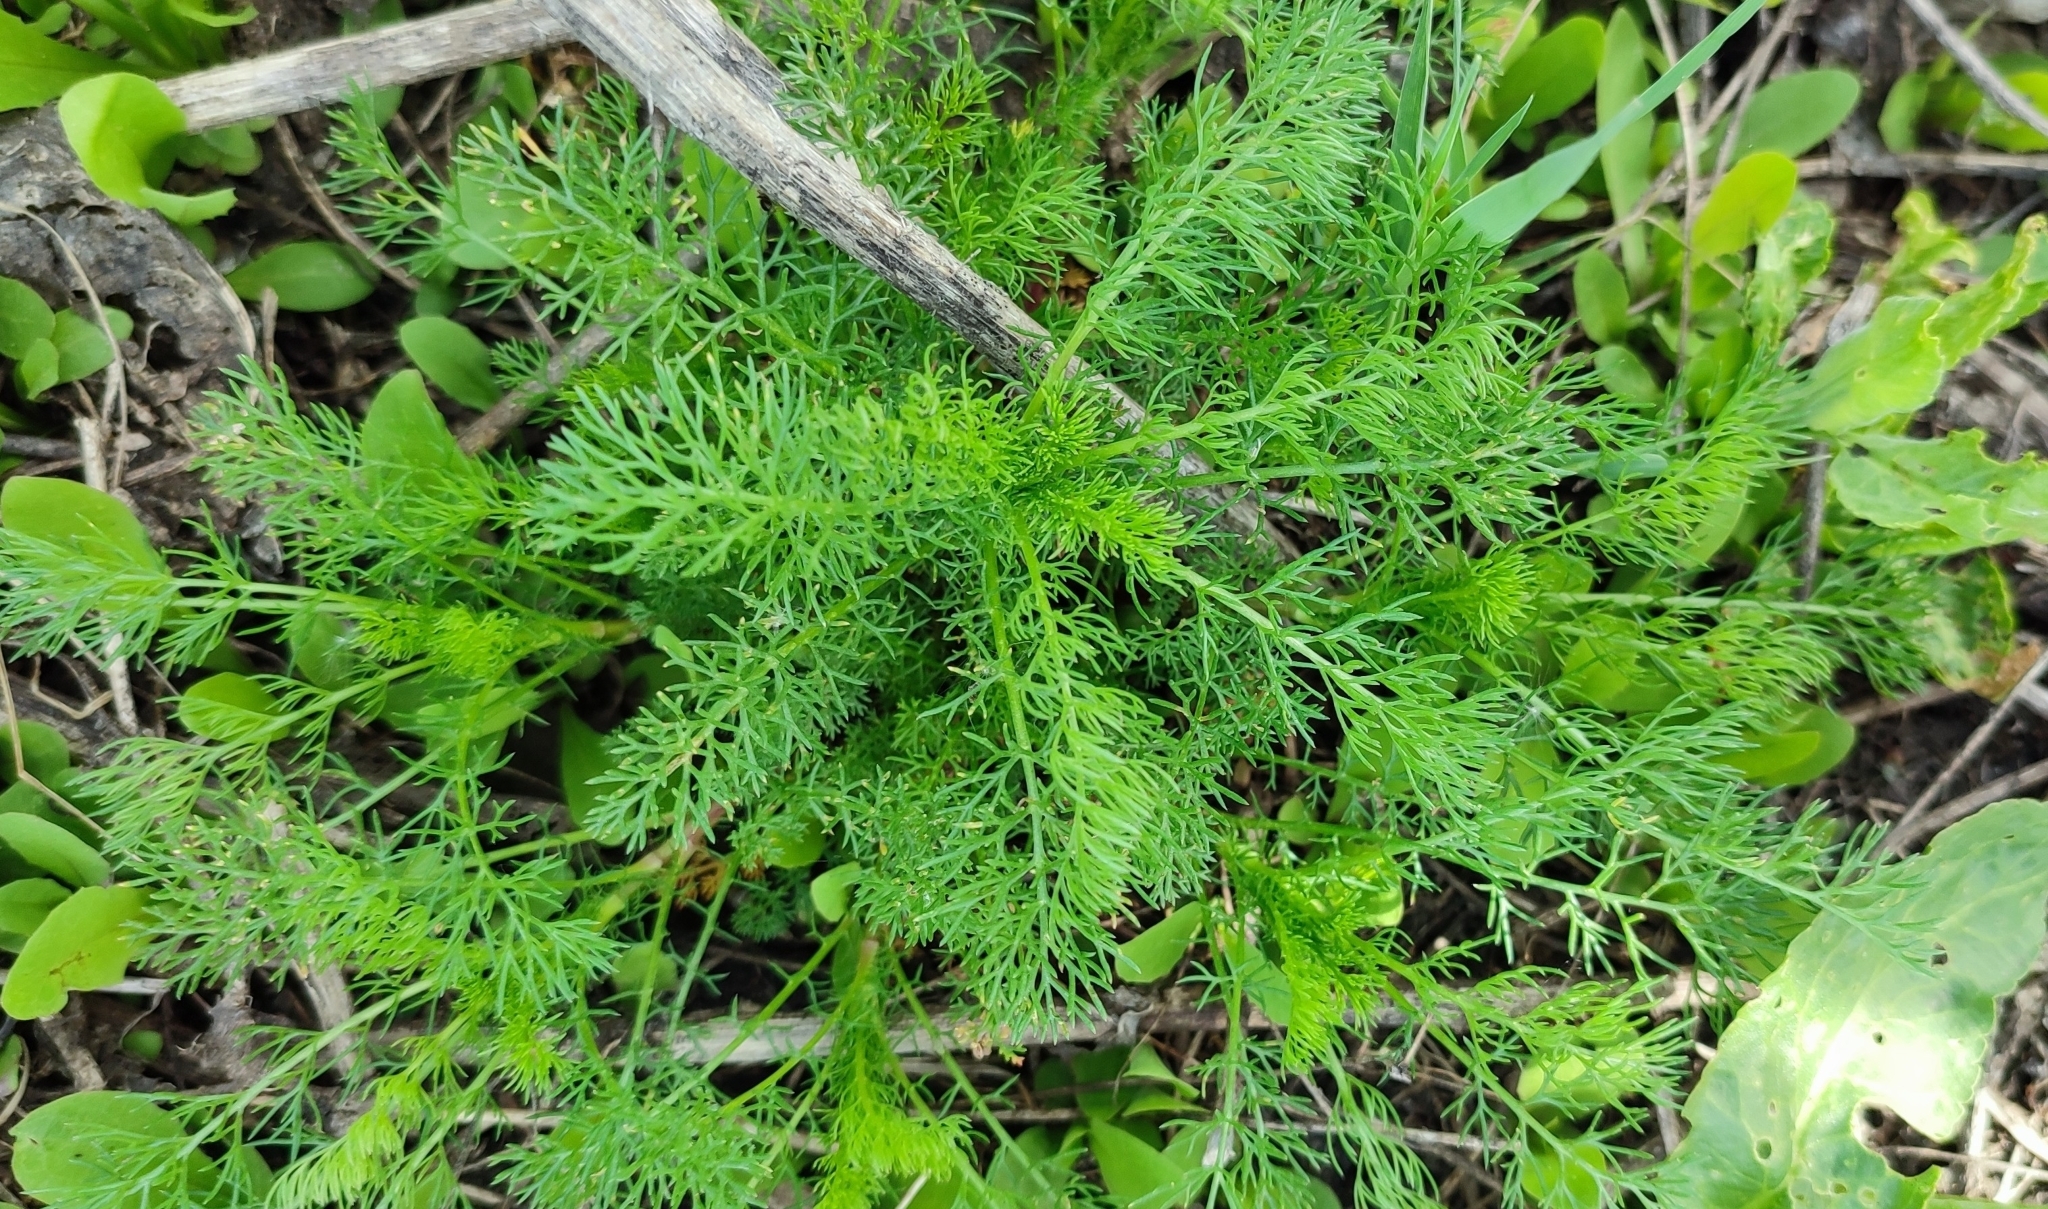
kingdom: Plantae
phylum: Tracheophyta
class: Magnoliopsida
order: Asterales
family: Asteraceae
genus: Tripleurospermum
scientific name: Tripleurospermum inodorum
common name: Scentless mayweed
